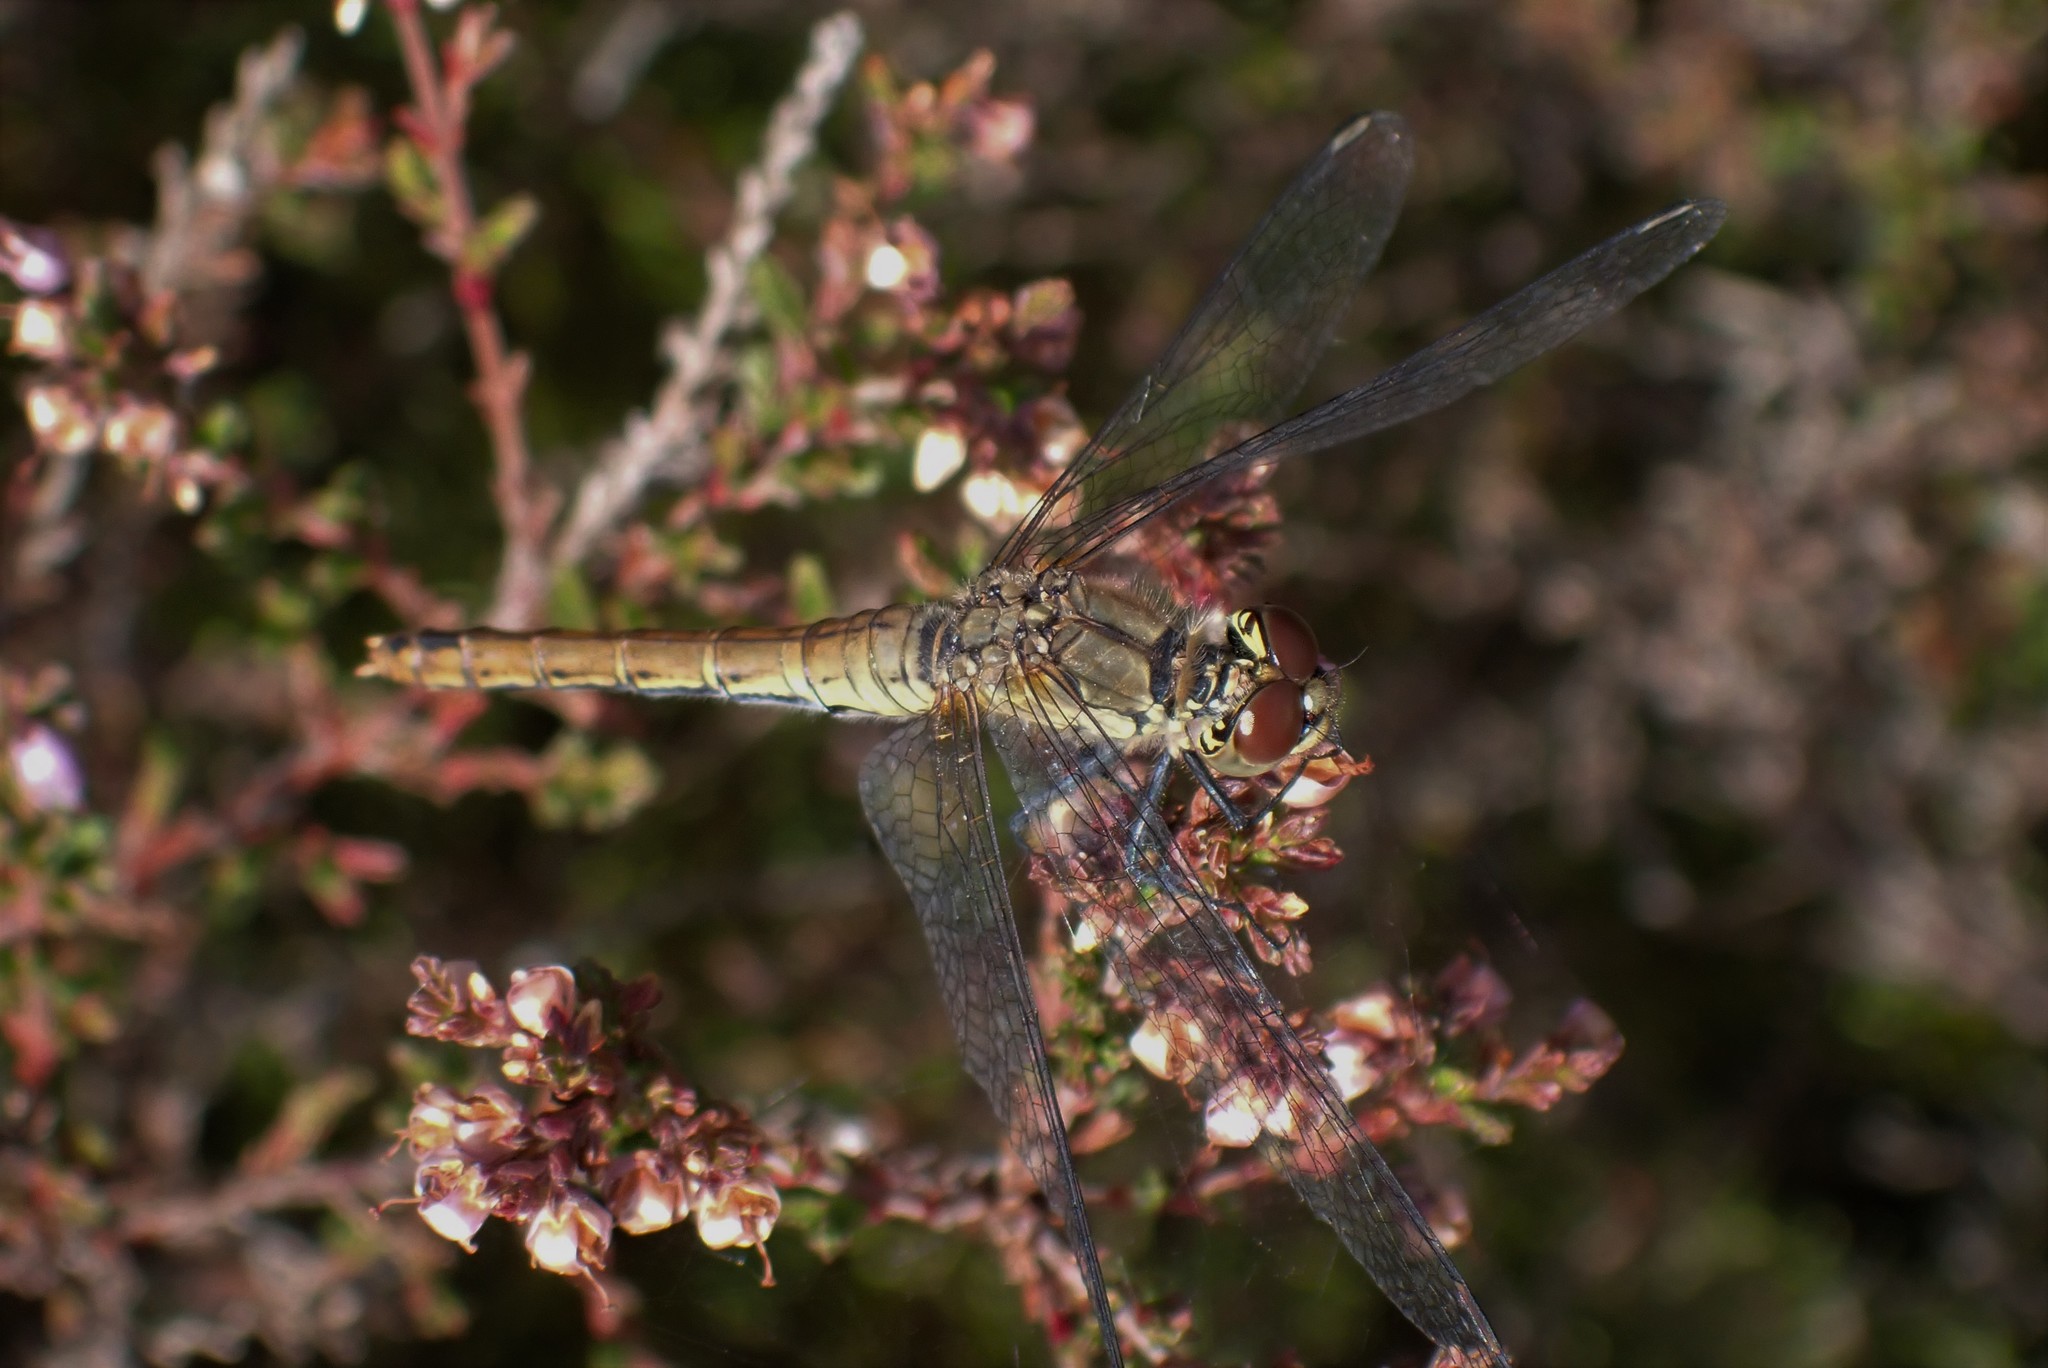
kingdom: Animalia
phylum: Arthropoda
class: Insecta
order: Odonata
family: Libellulidae
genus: Sympetrum
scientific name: Sympetrum sanguineum
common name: Ruddy darter
